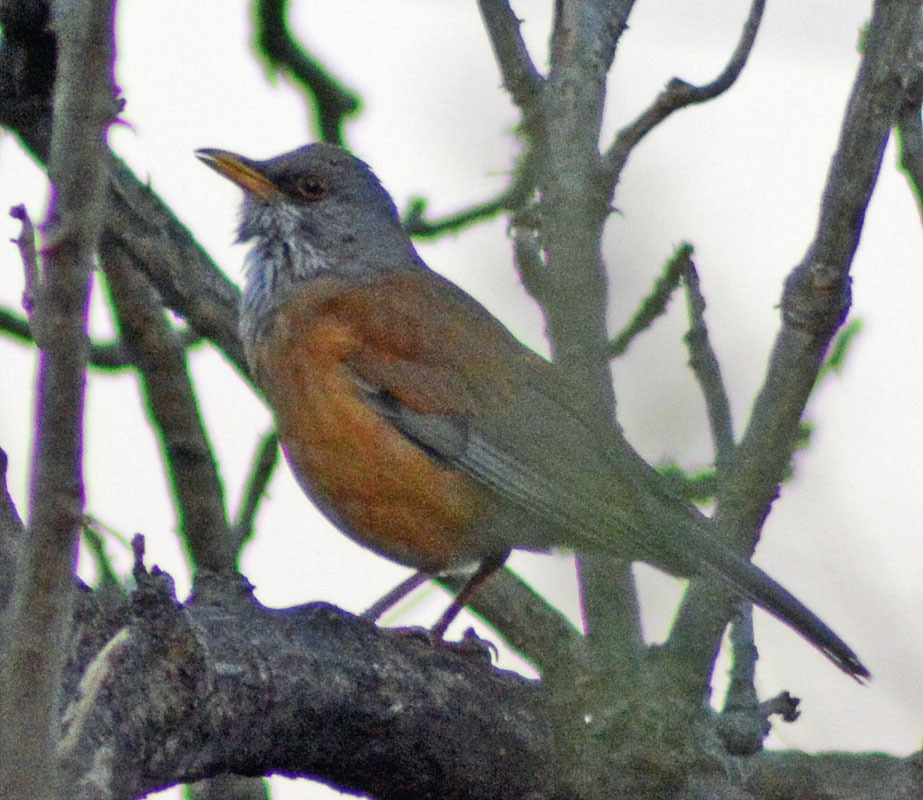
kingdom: Animalia
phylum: Chordata
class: Aves
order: Passeriformes
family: Turdidae
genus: Turdus
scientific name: Turdus rufopalliatus
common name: Rufous-backed robin
